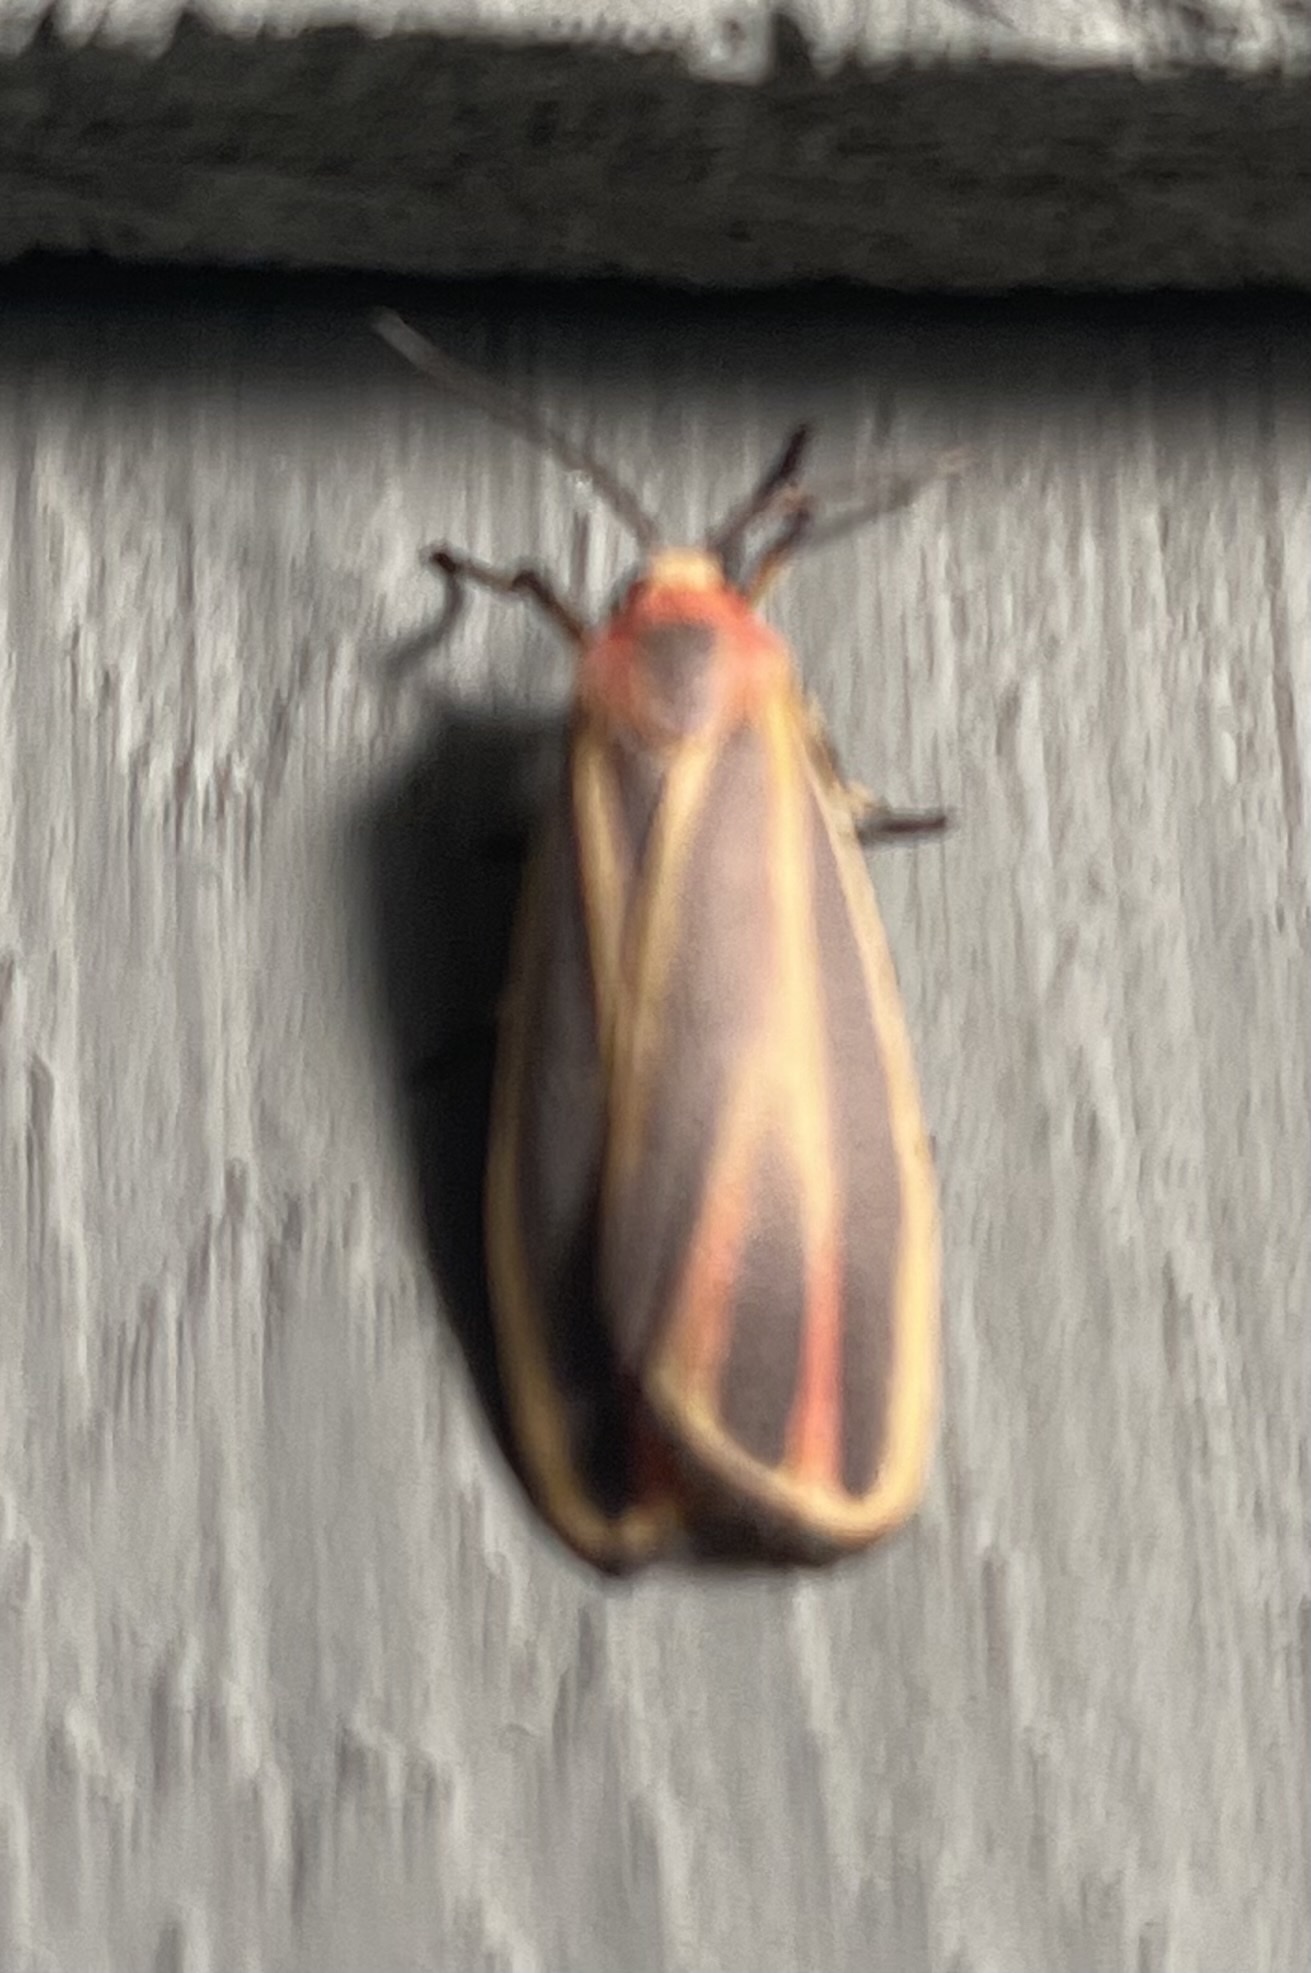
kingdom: Animalia
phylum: Arthropoda
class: Insecta
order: Lepidoptera
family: Erebidae
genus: Hypoprepia
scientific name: Hypoprepia fucosa
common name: Painted lichen moth
